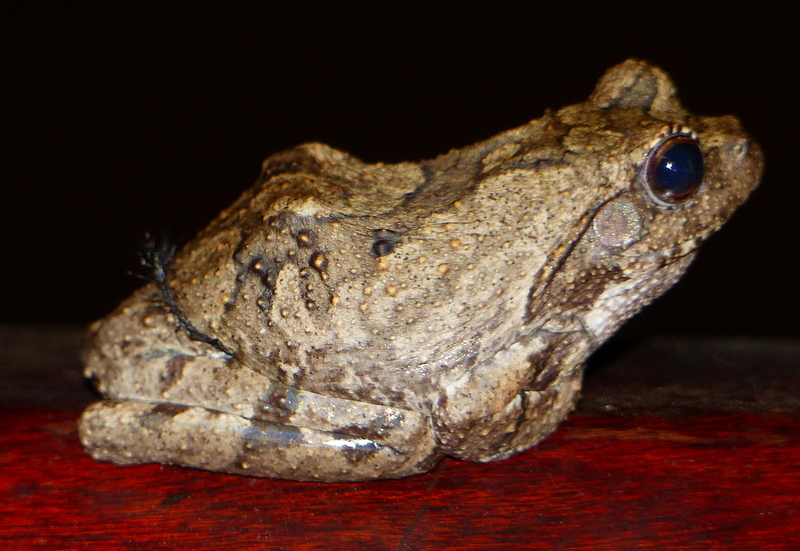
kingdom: Animalia
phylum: Chordata
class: Amphibia
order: Anura
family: Rhacophoridae
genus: Chiromantis
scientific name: Chiromantis xerampelina
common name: African gray treefrog
